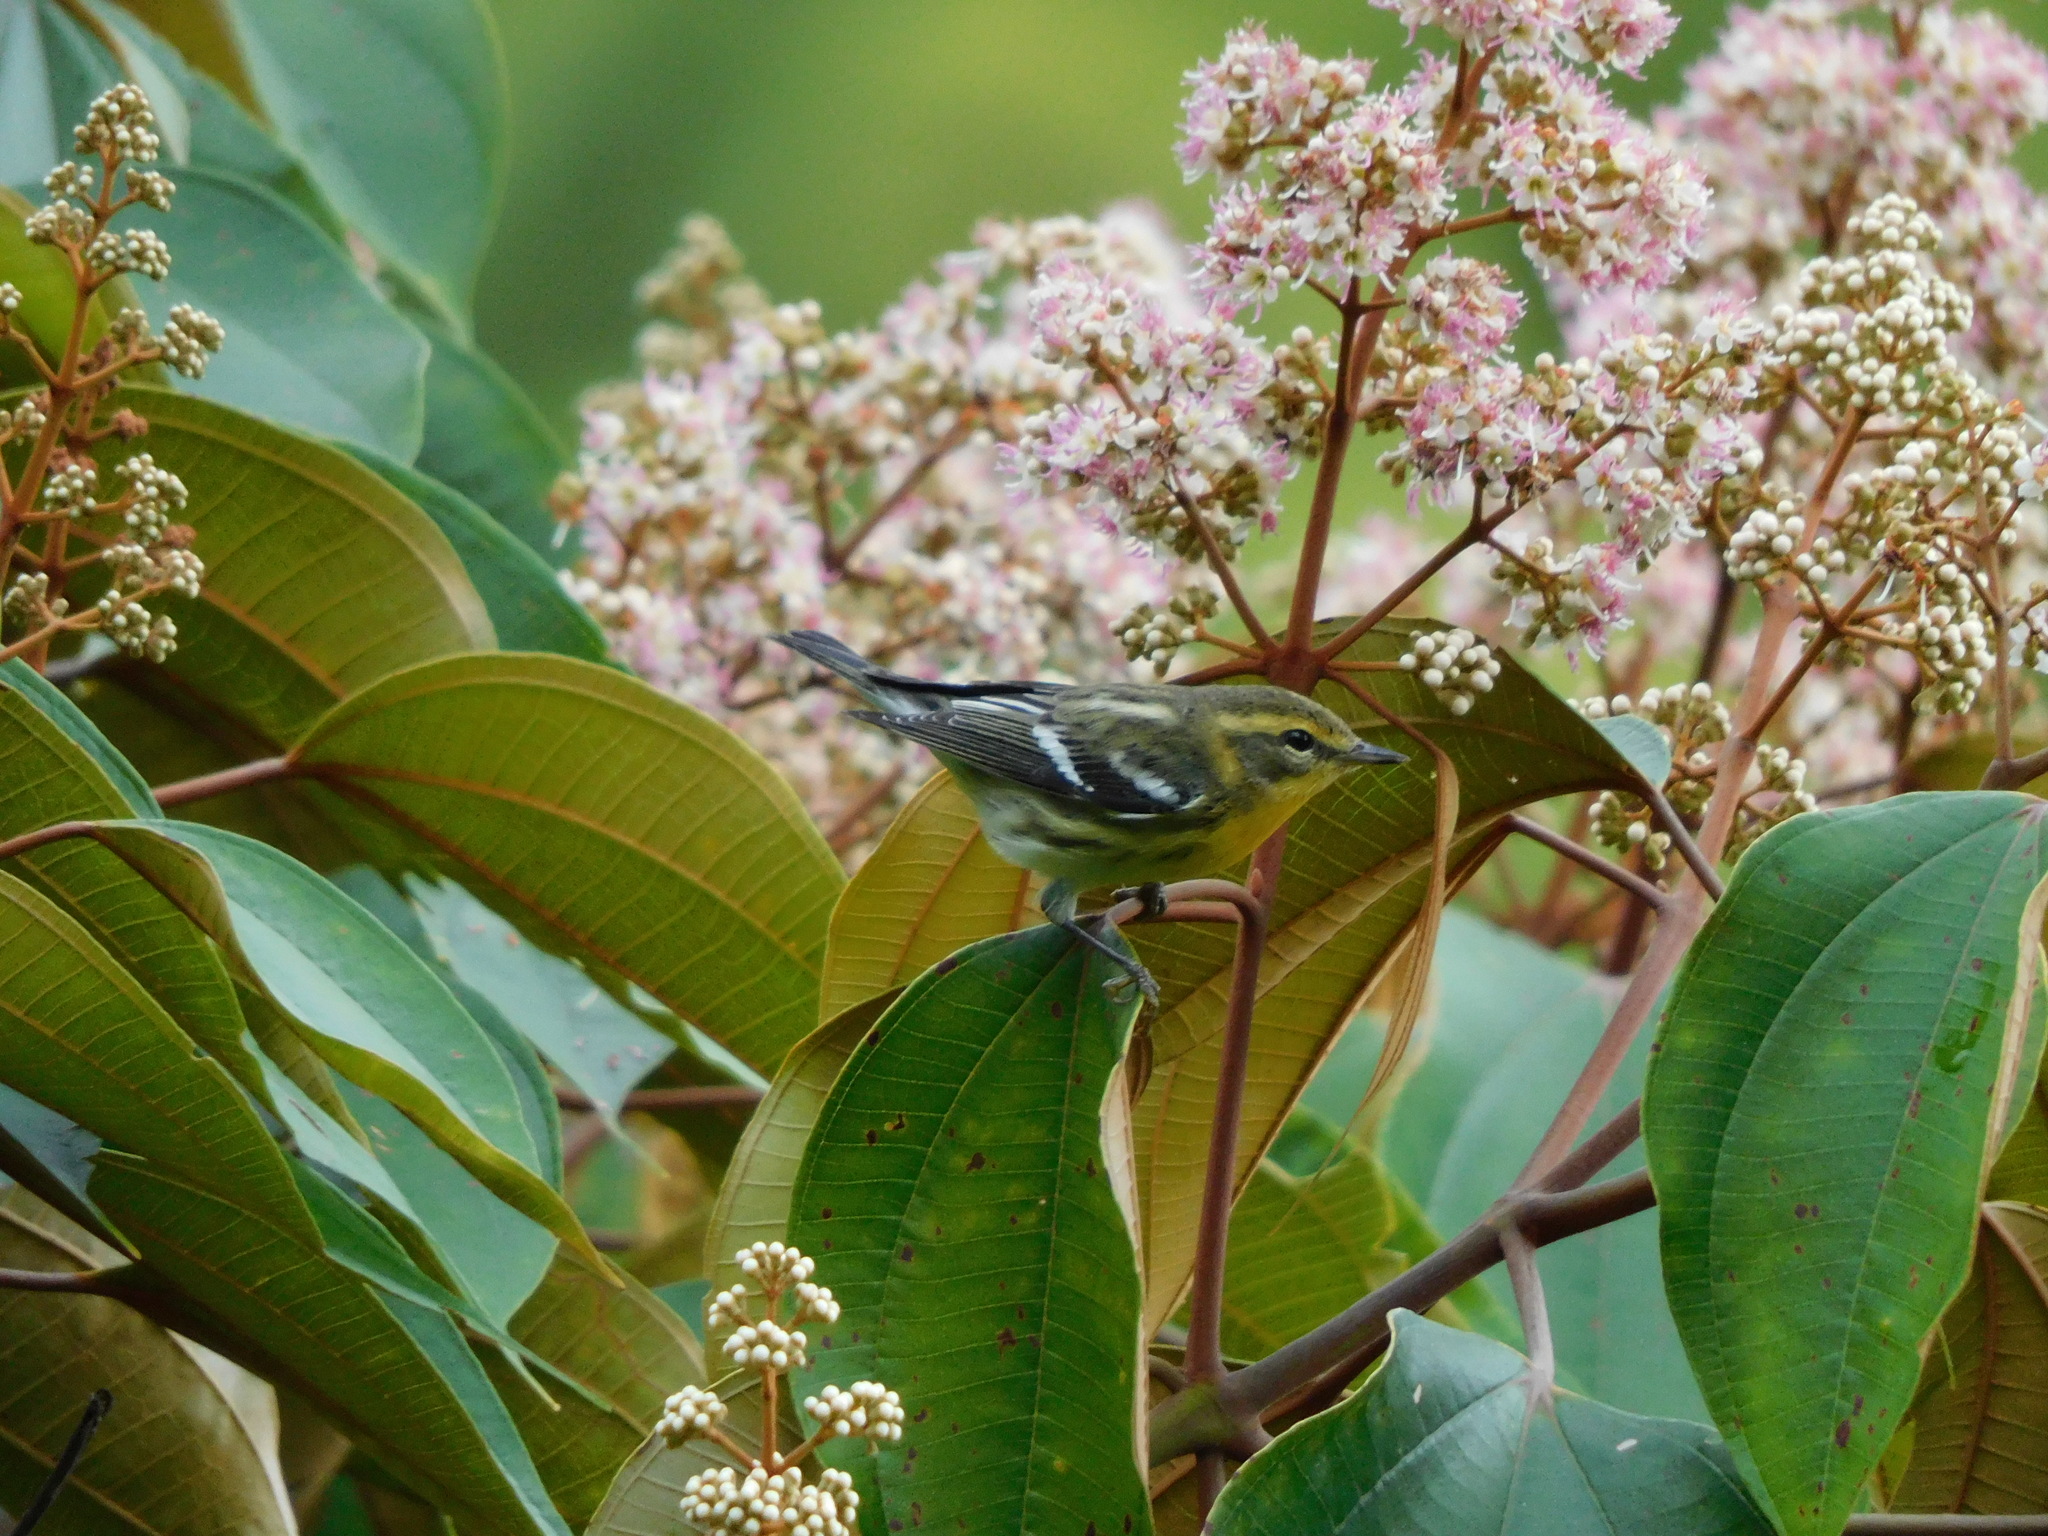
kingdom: Animalia
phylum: Chordata
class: Aves
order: Passeriformes
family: Parulidae
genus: Setophaga
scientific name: Setophaga fusca
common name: Blackburnian warbler
